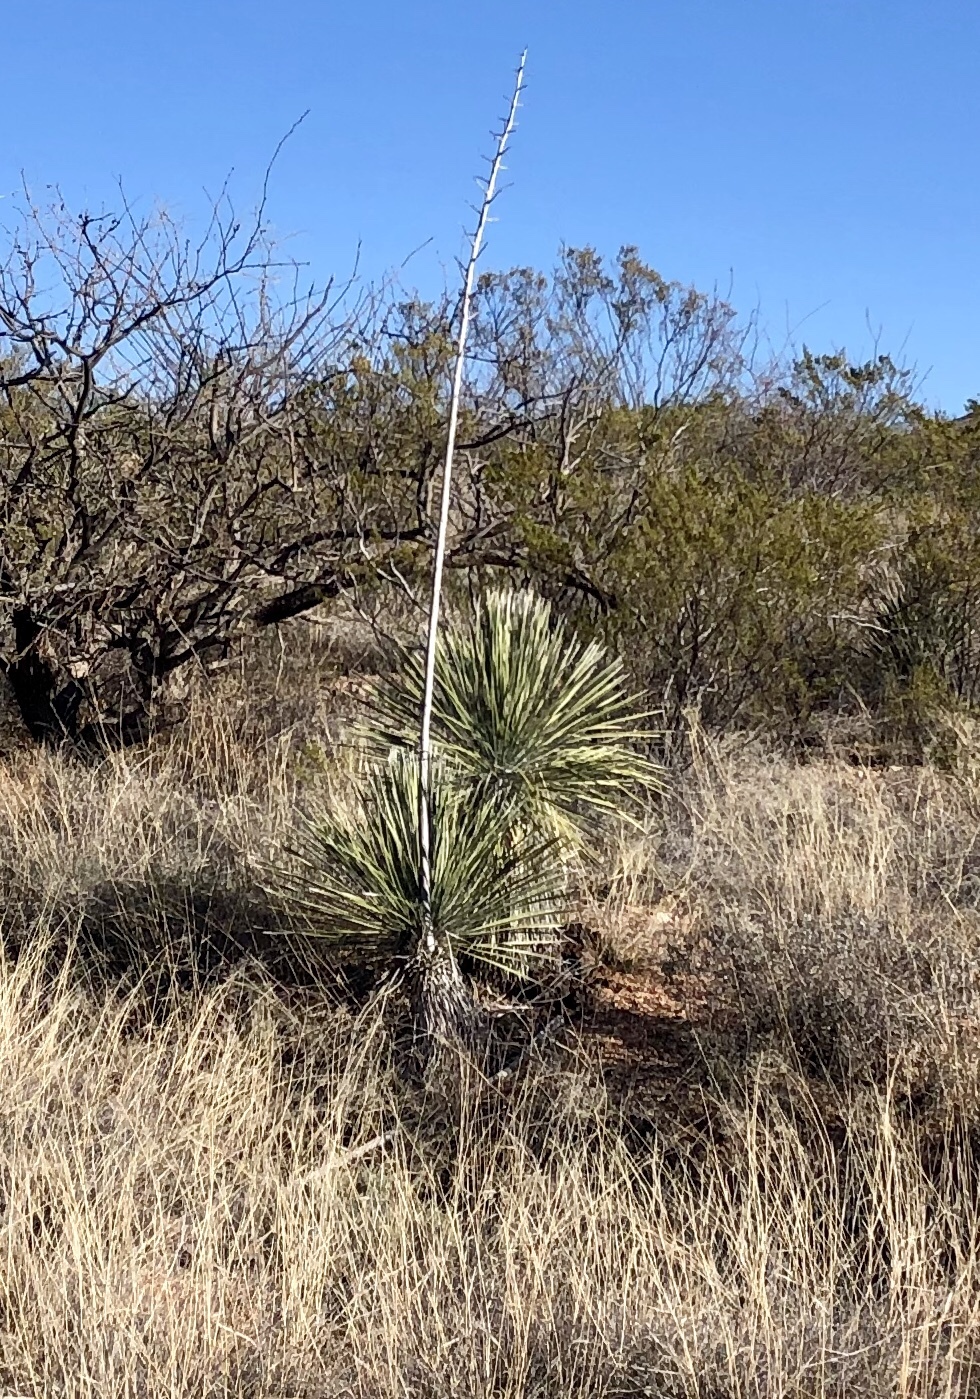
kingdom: Plantae
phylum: Tracheophyta
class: Liliopsida
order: Asparagales
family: Asparagaceae
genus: Yucca
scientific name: Yucca elata
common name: Palmella
